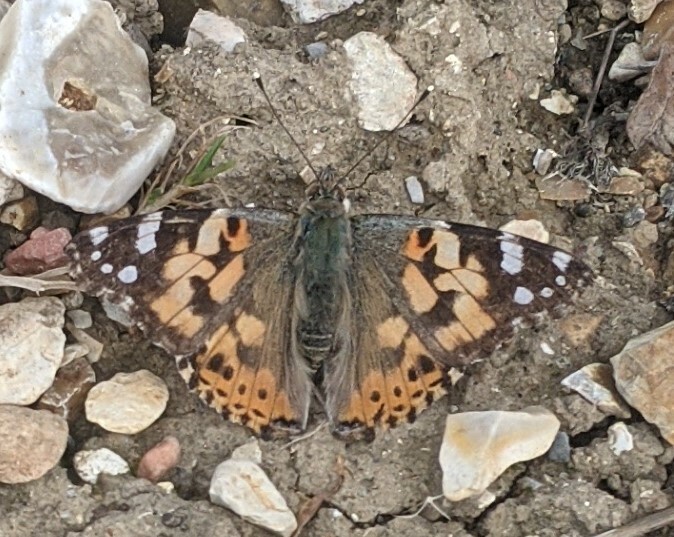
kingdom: Animalia
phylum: Arthropoda
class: Insecta
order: Lepidoptera
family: Nymphalidae
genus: Vanessa
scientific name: Vanessa cardui
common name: Painted lady
